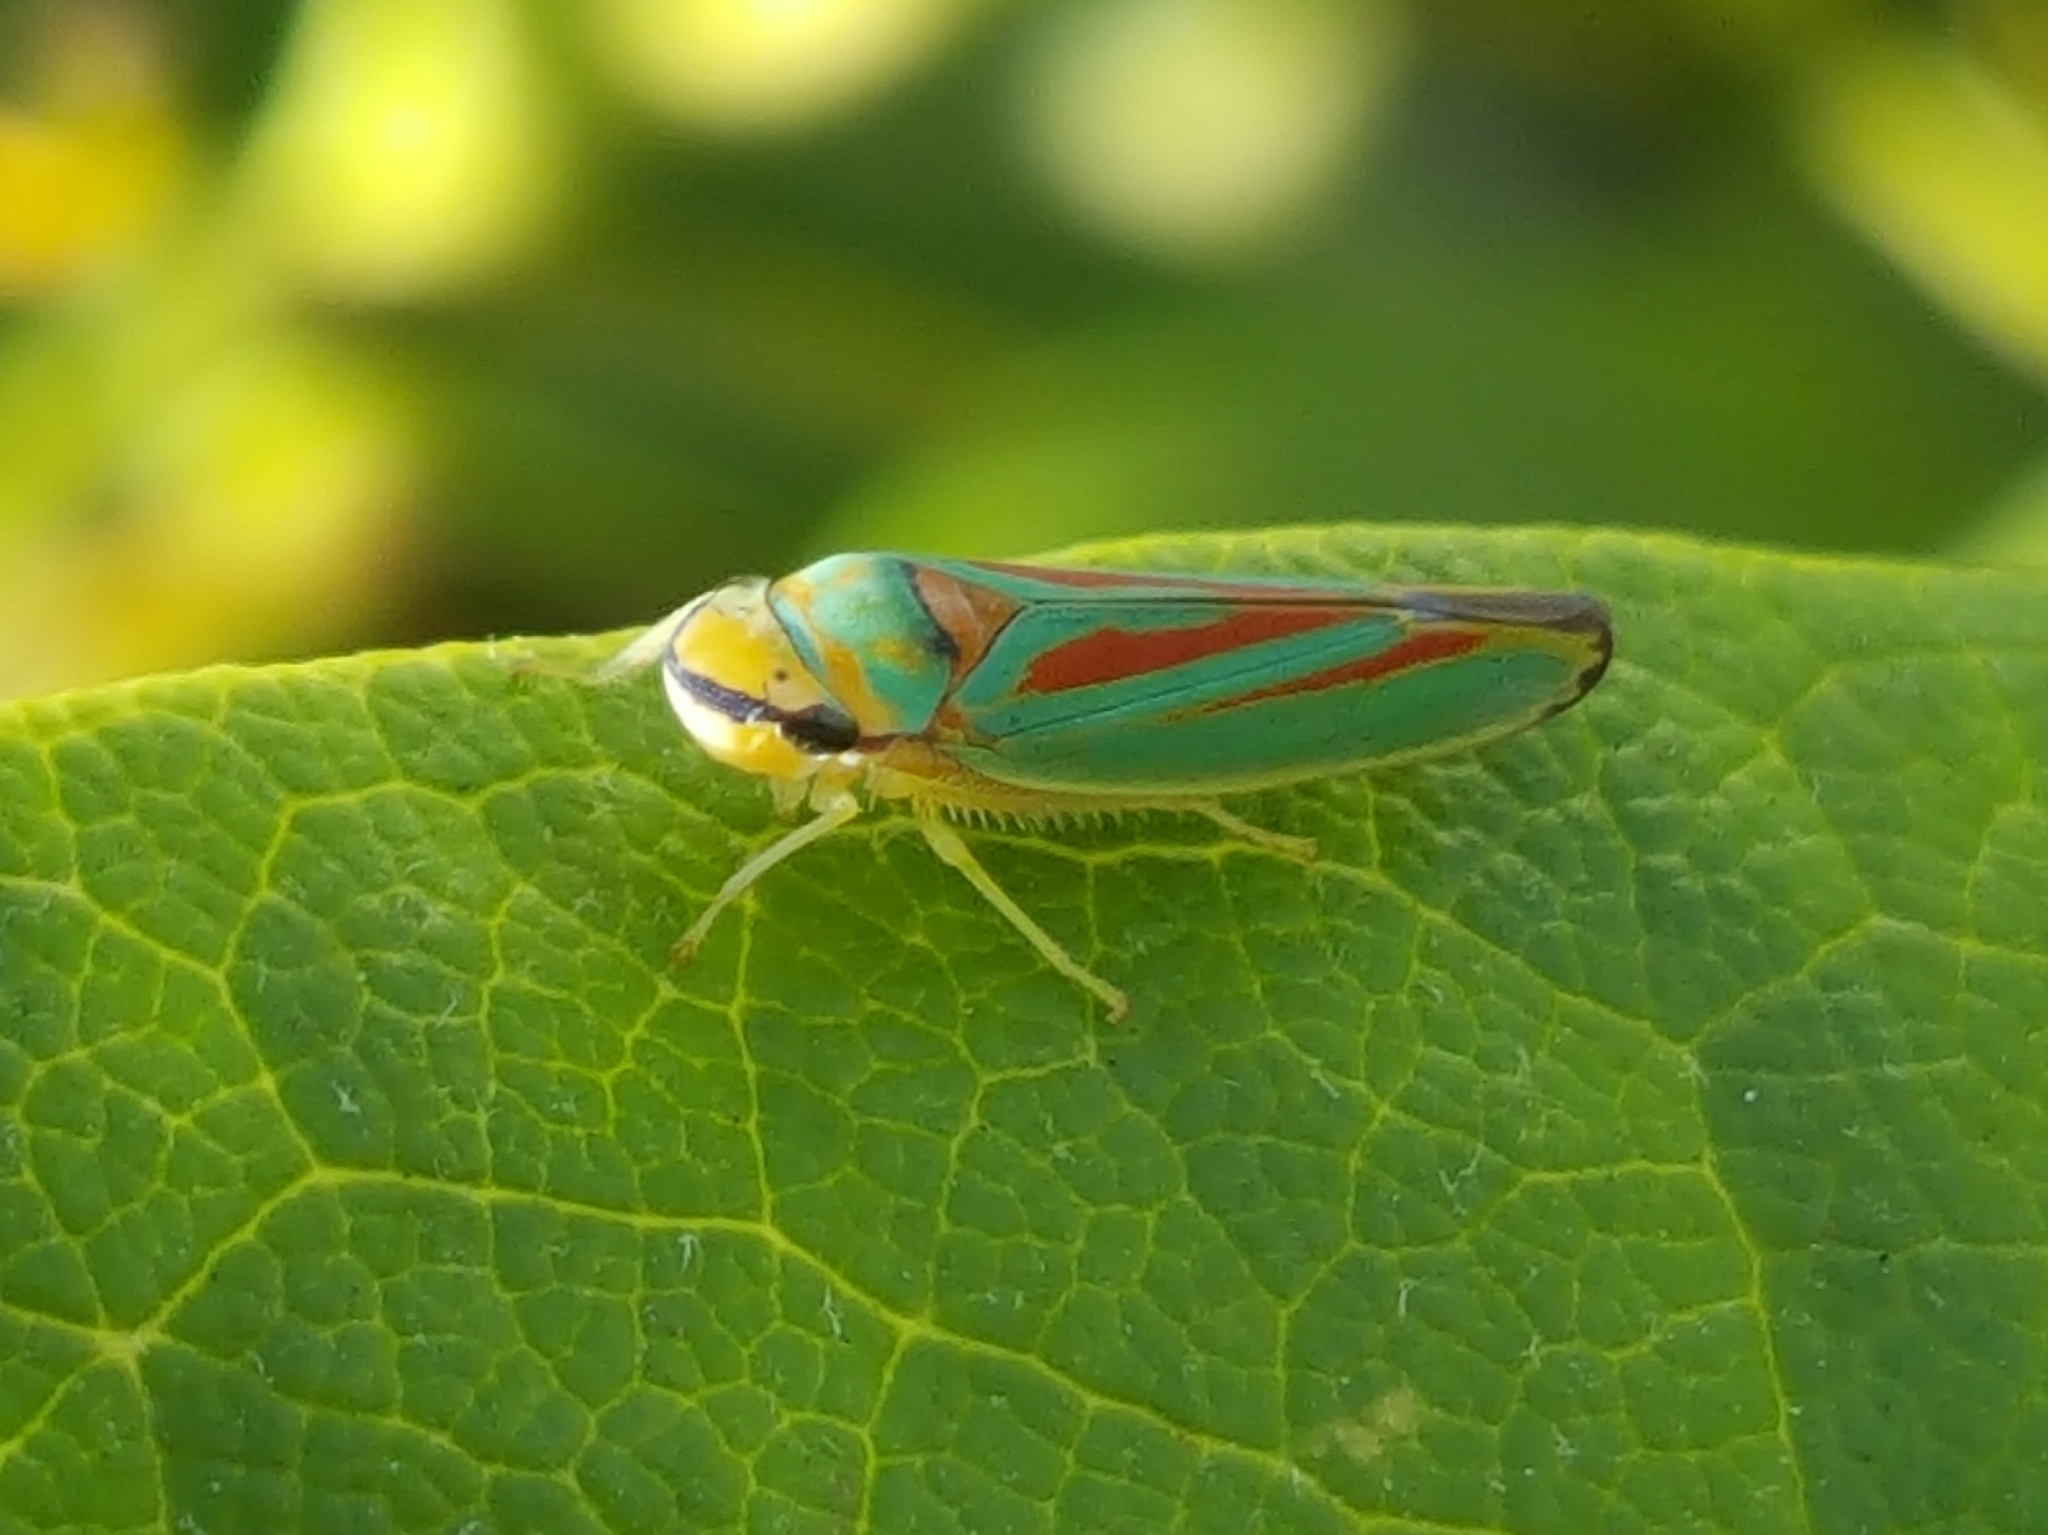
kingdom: Animalia
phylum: Arthropoda
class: Insecta
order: Hemiptera
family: Cicadellidae
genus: Graphocephala
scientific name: Graphocephala fennahi
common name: Rhododendron leafhopper
